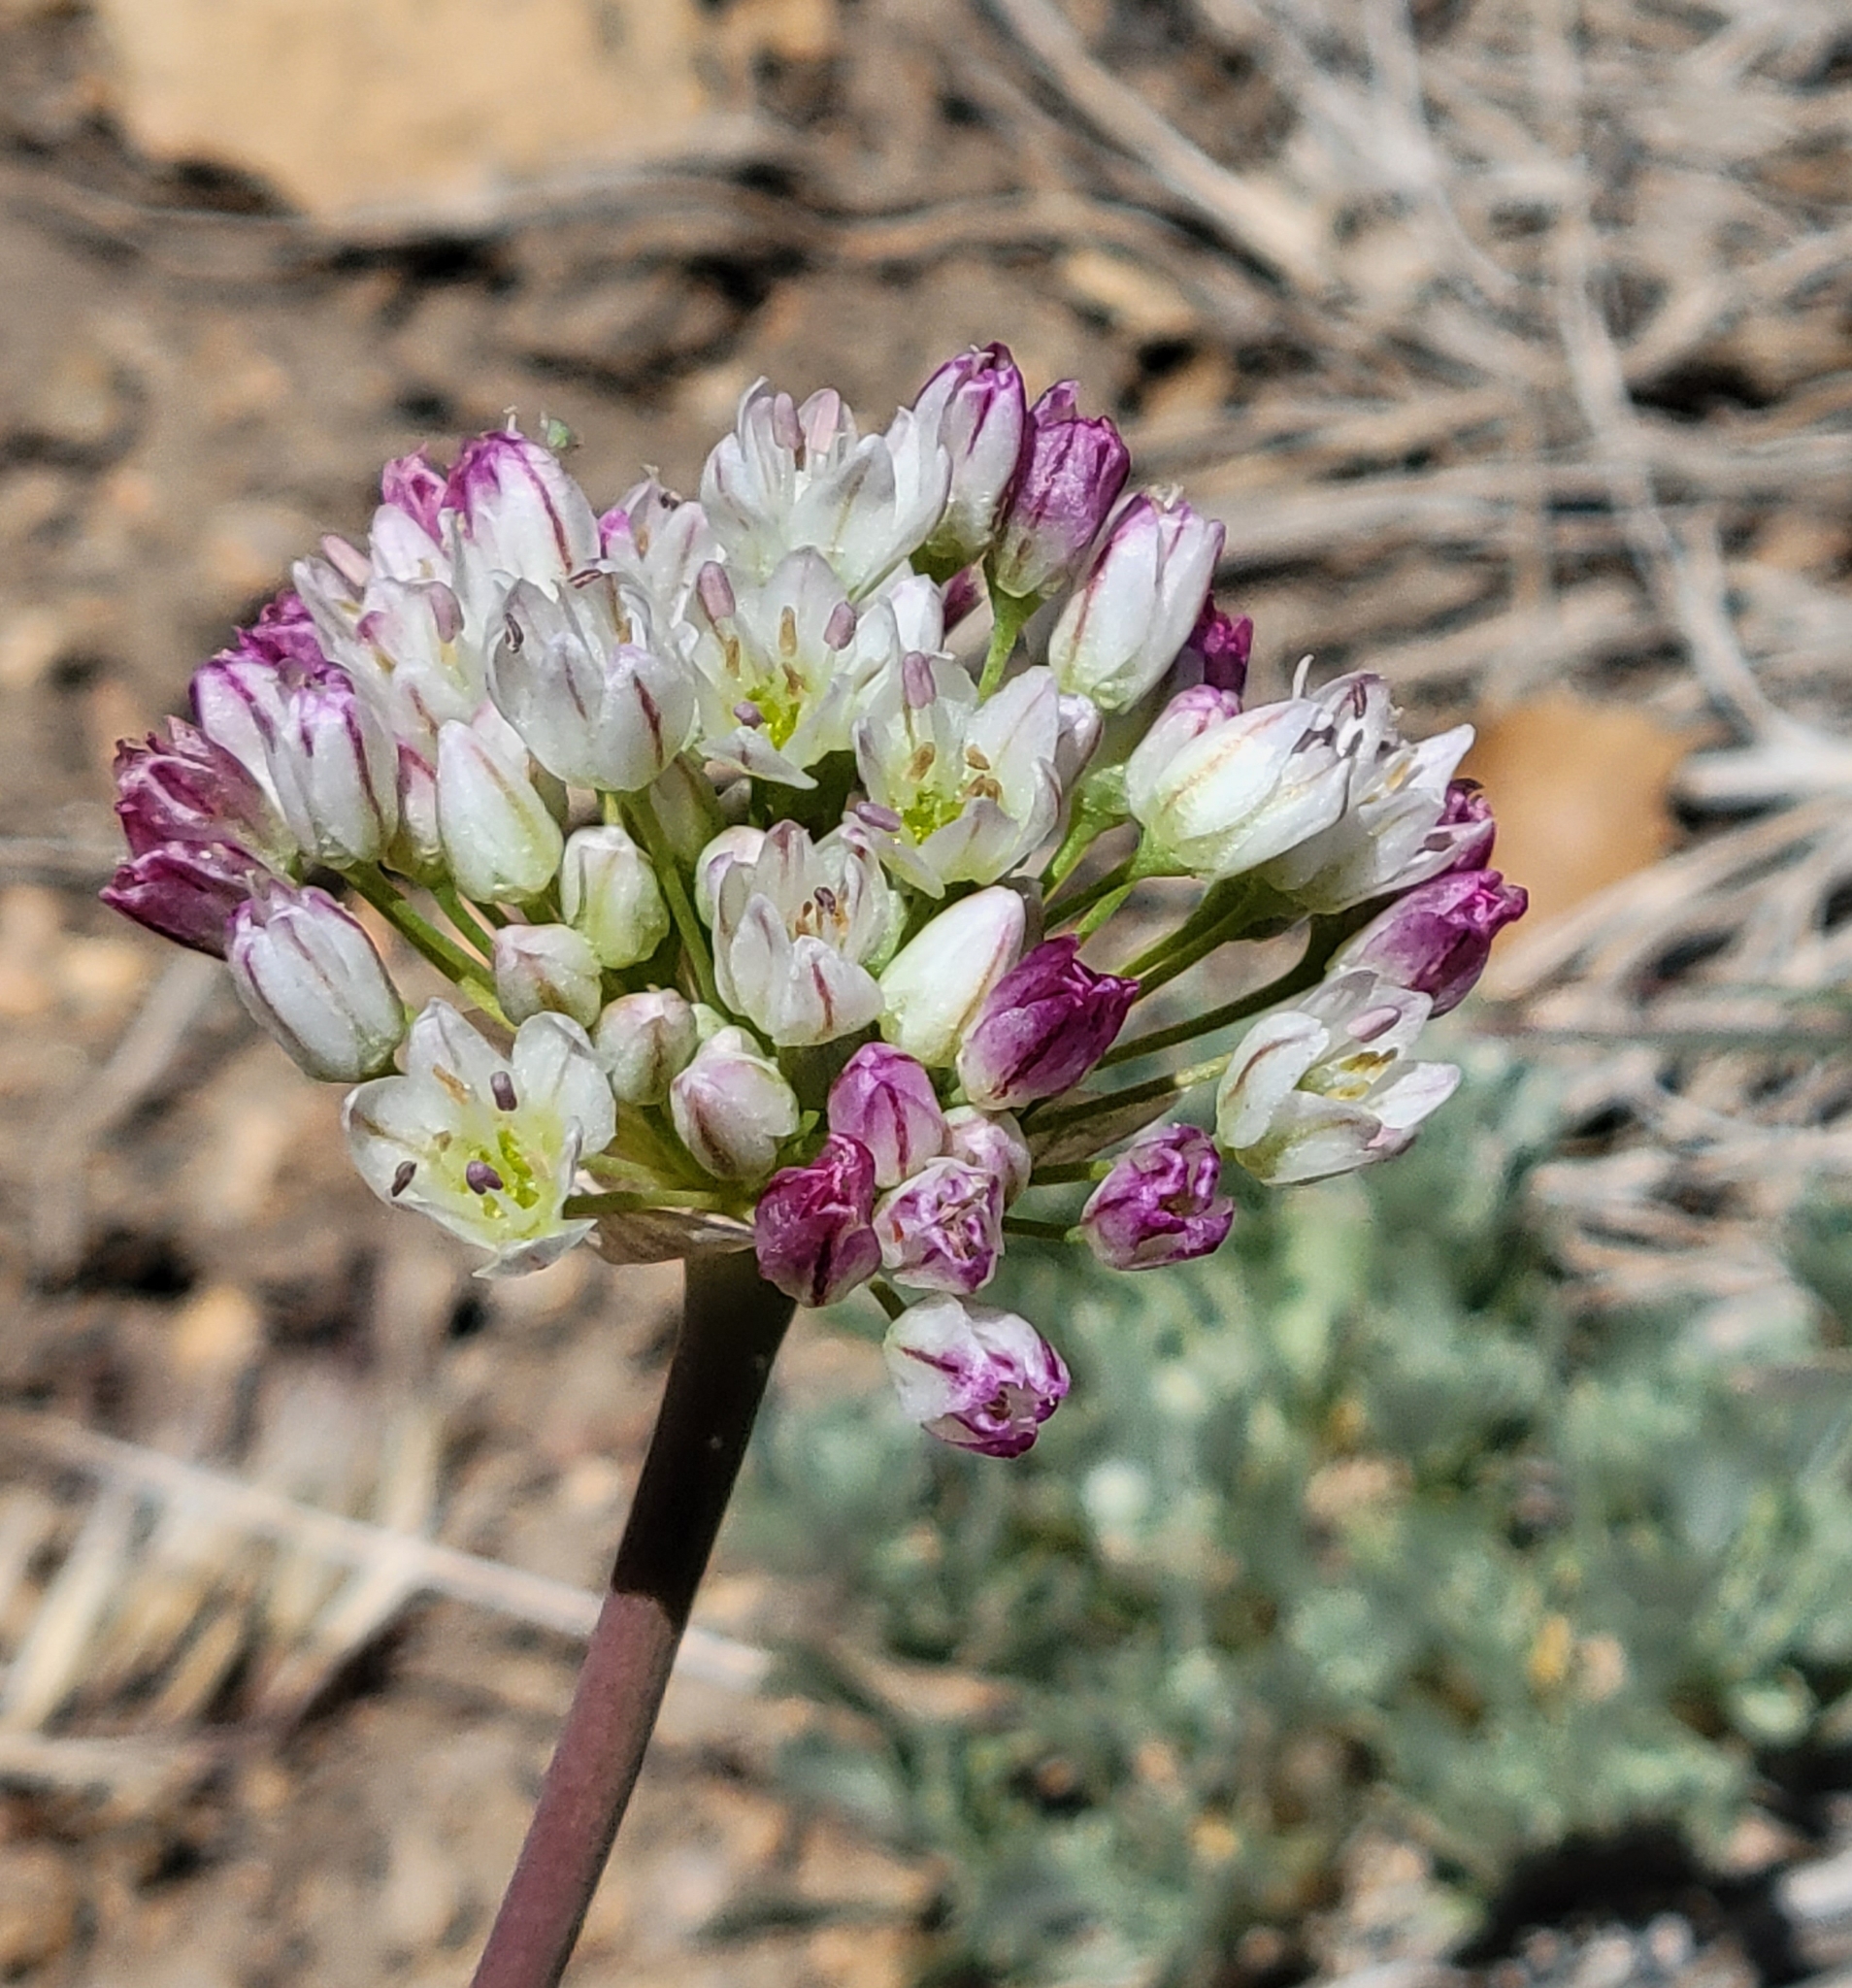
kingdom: Plantae
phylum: Tracheophyta
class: Liliopsida
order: Asparagales
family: Amaryllidaceae
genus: Allium
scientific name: Allium howellii
